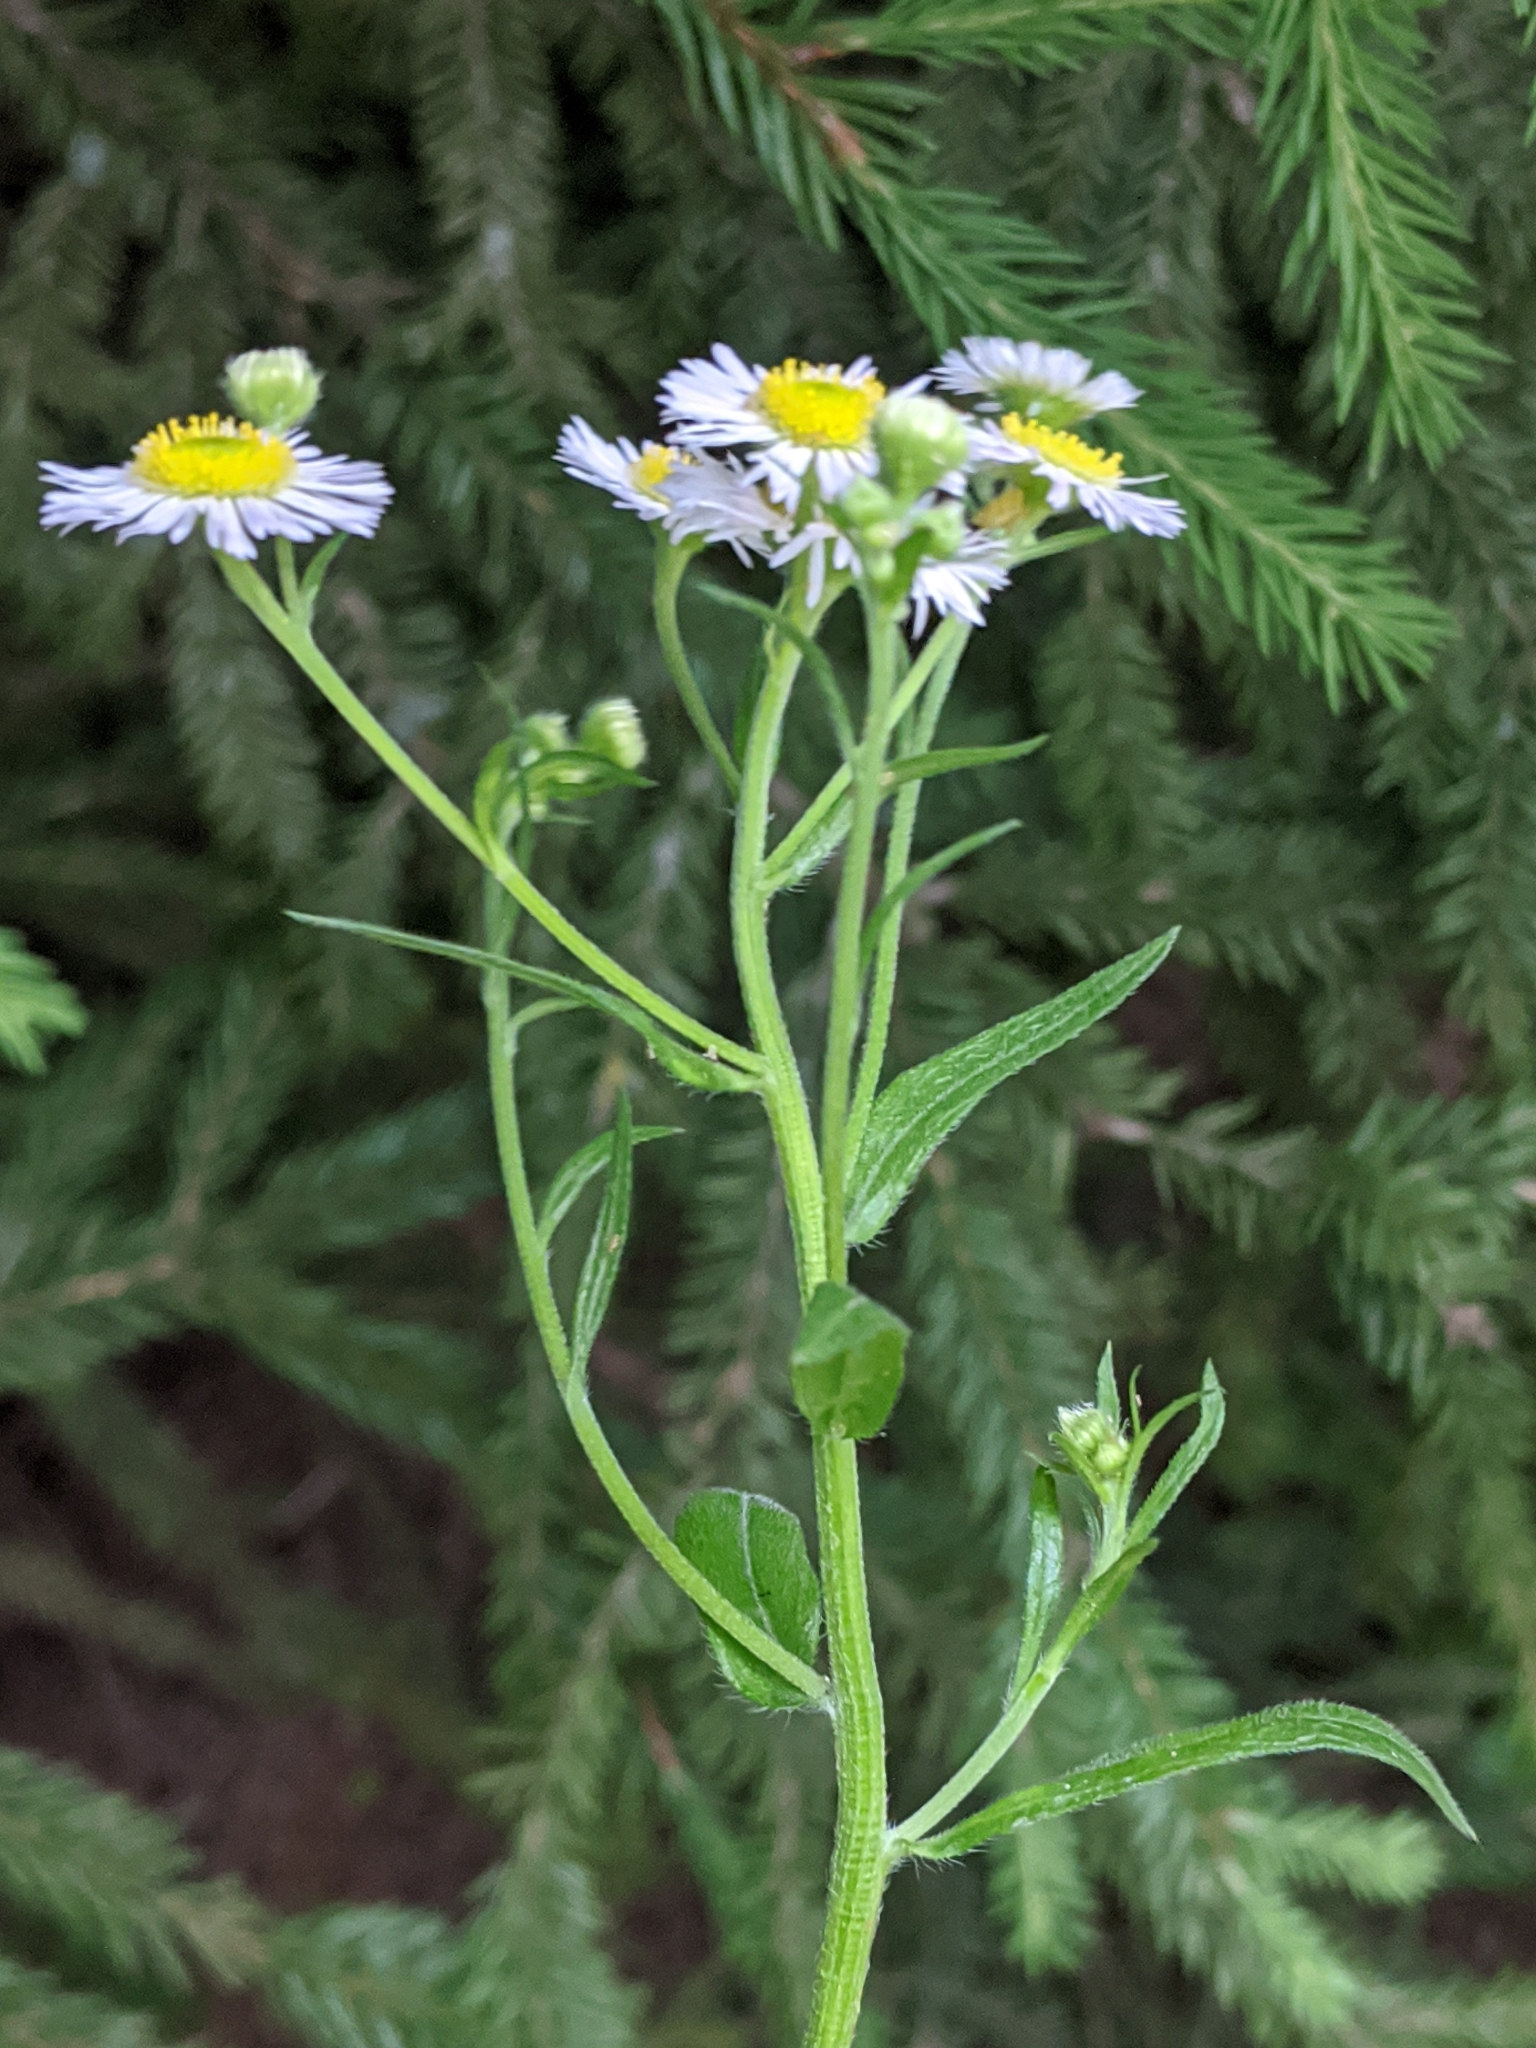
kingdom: Plantae
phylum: Tracheophyta
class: Magnoliopsida
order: Asterales
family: Asteraceae
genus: Erigeron
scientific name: Erigeron annuus
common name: Tall fleabane
